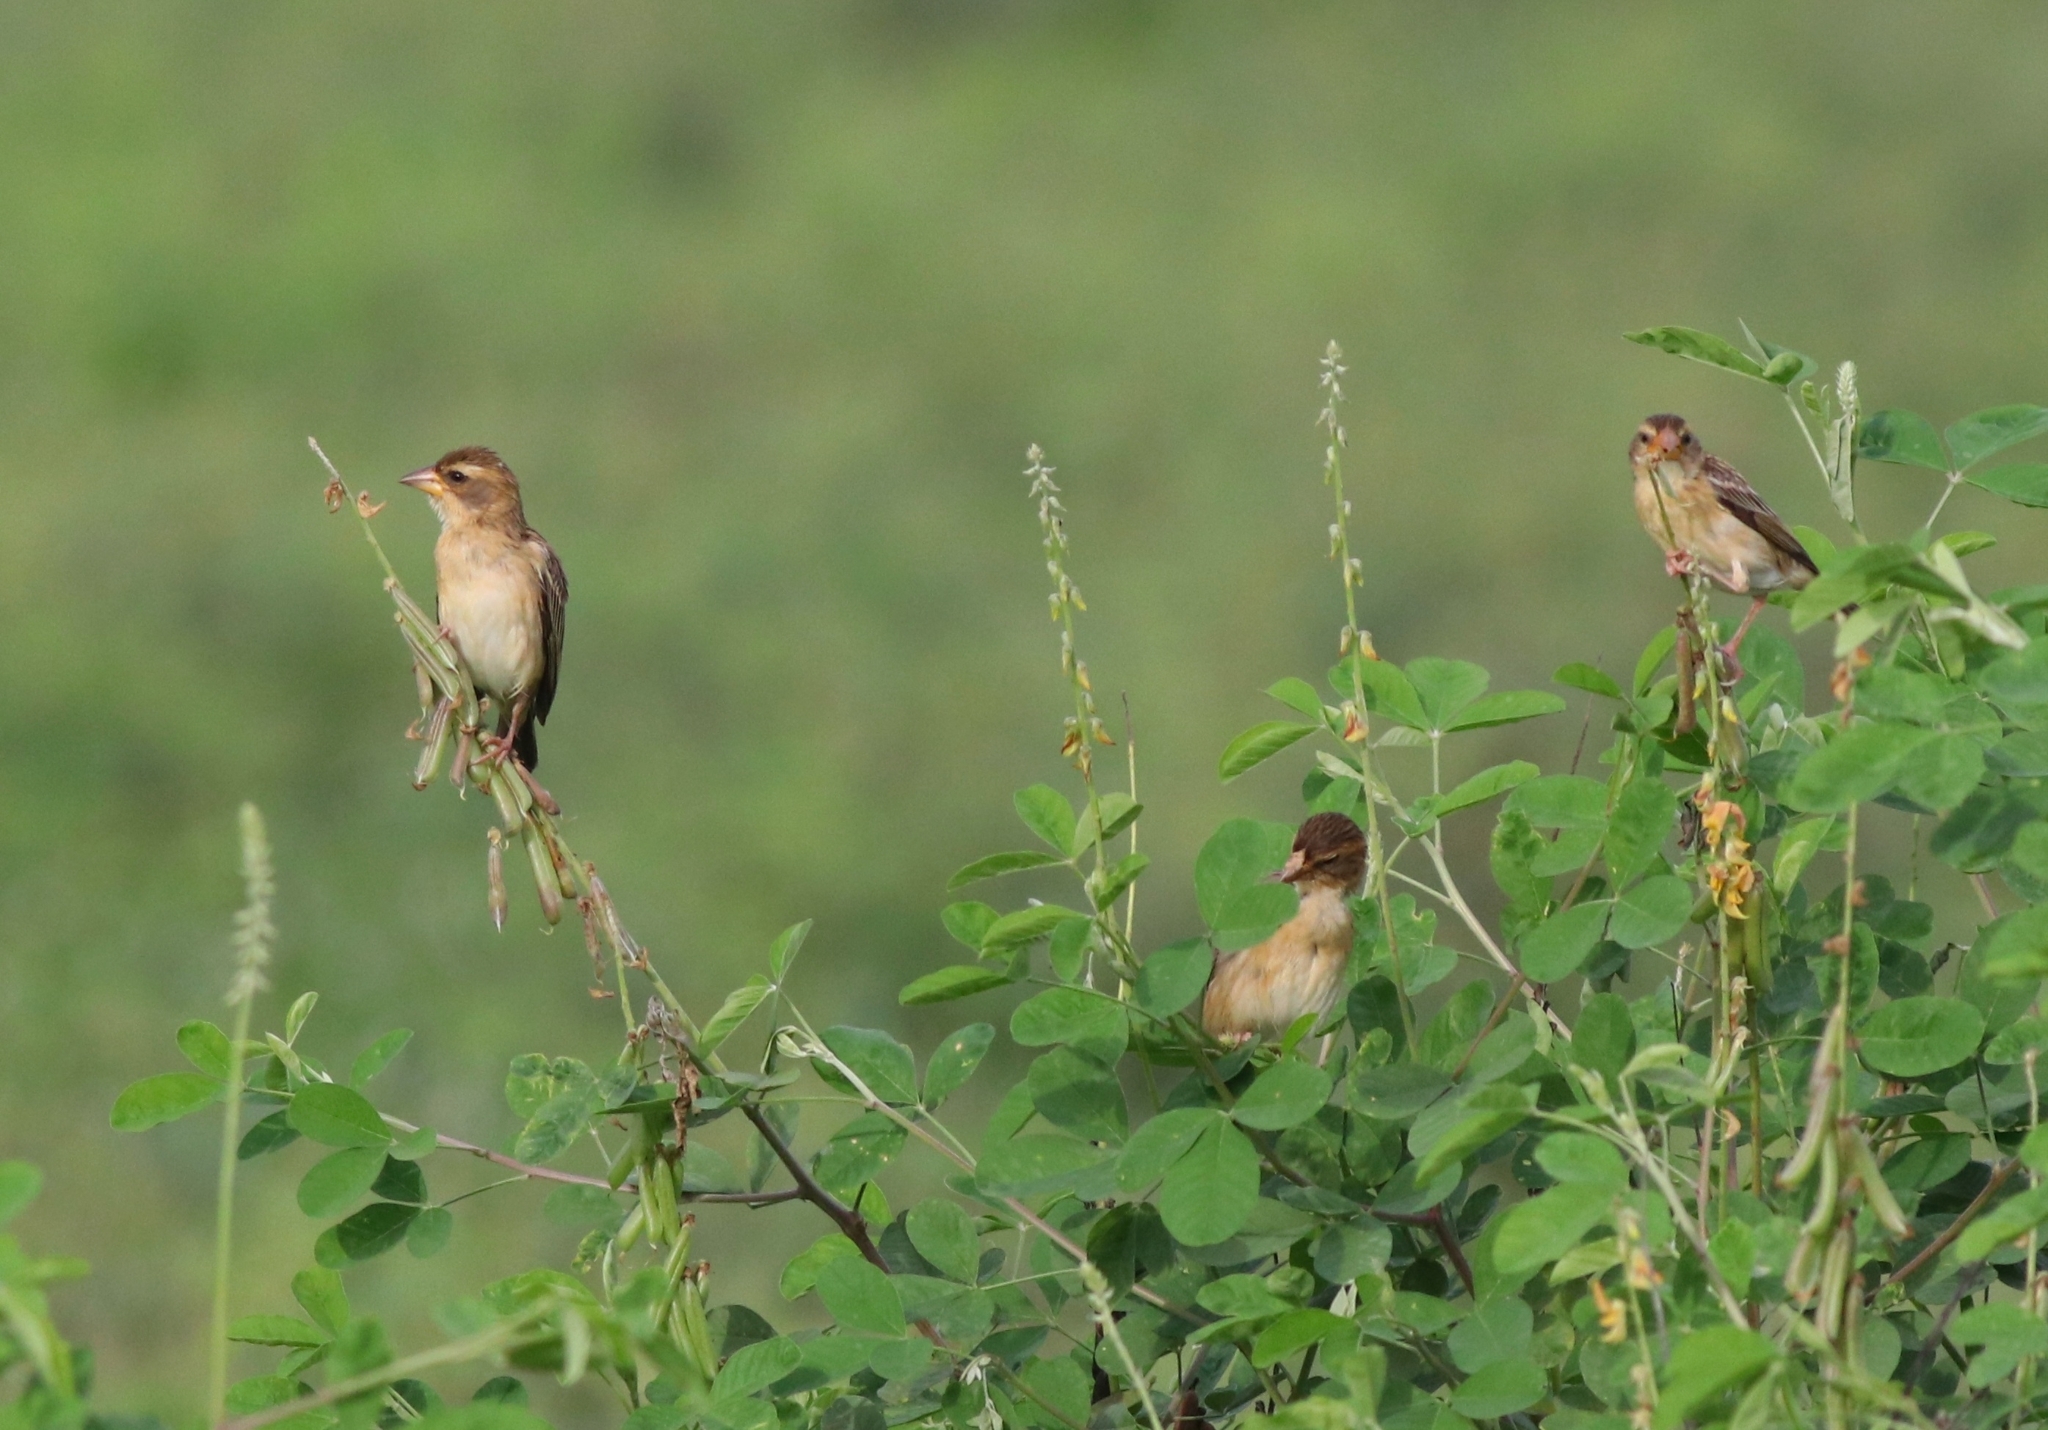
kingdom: Animalia
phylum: Chordata
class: Aves
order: Passeriformes
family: Ploceidae
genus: Ploceus
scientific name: Ploceus philippinus
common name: Baya weaver
